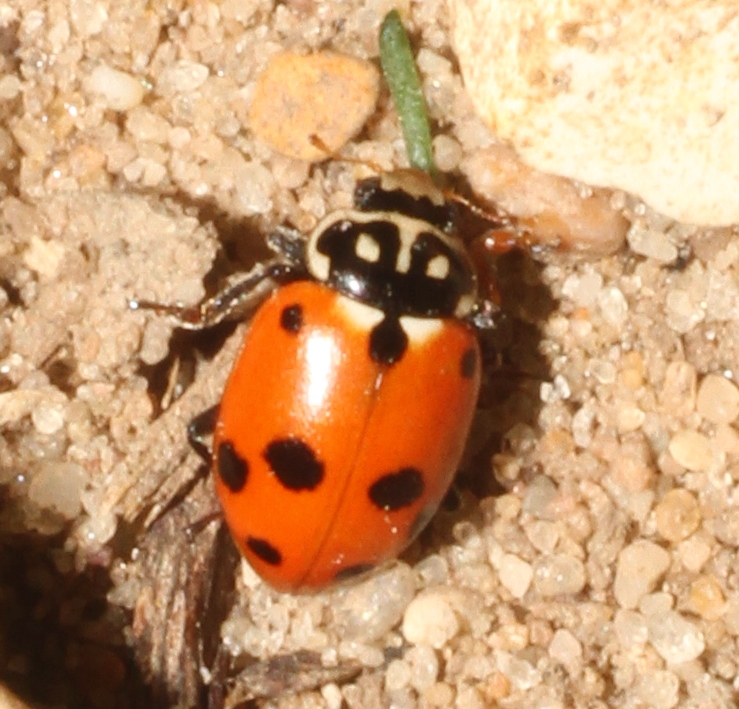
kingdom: Animalia
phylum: Arthropoda
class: Insecta
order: Coleoptera
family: Coccinellidae
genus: Hippodamia
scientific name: Hippodamia variegata
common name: Ladybird beetle
